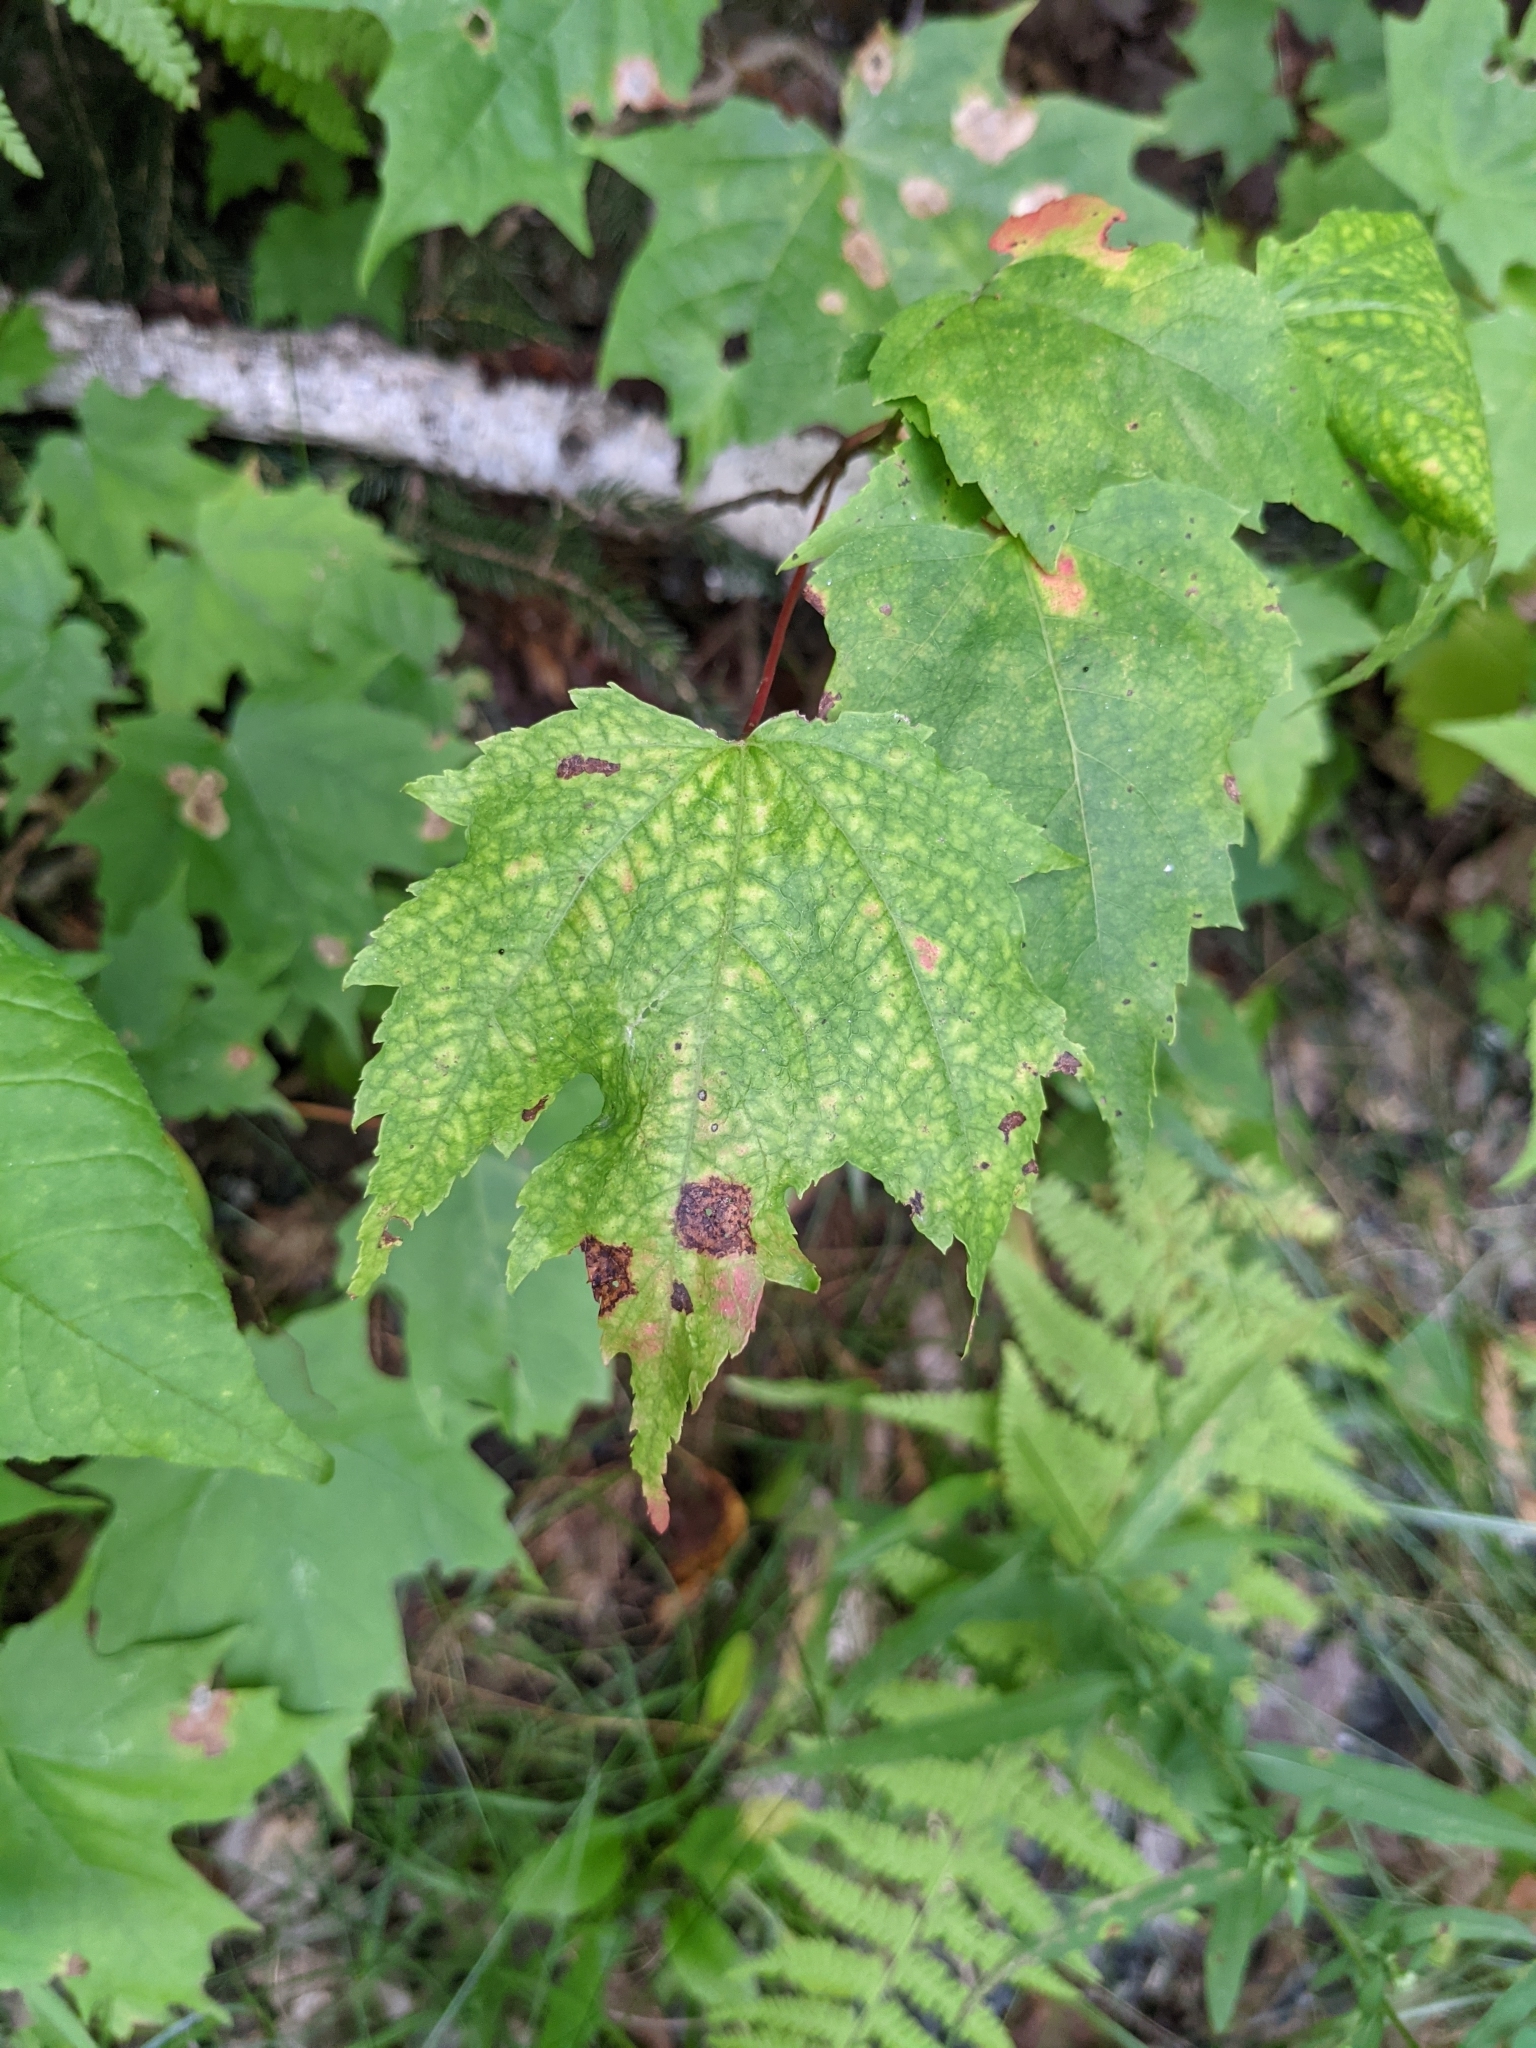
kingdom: Plantae
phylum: Tracheophyta
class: Magnoliopsida
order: Sapindales
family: Sapindaceae
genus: Acer
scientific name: Acer rubrum
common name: Red maple
